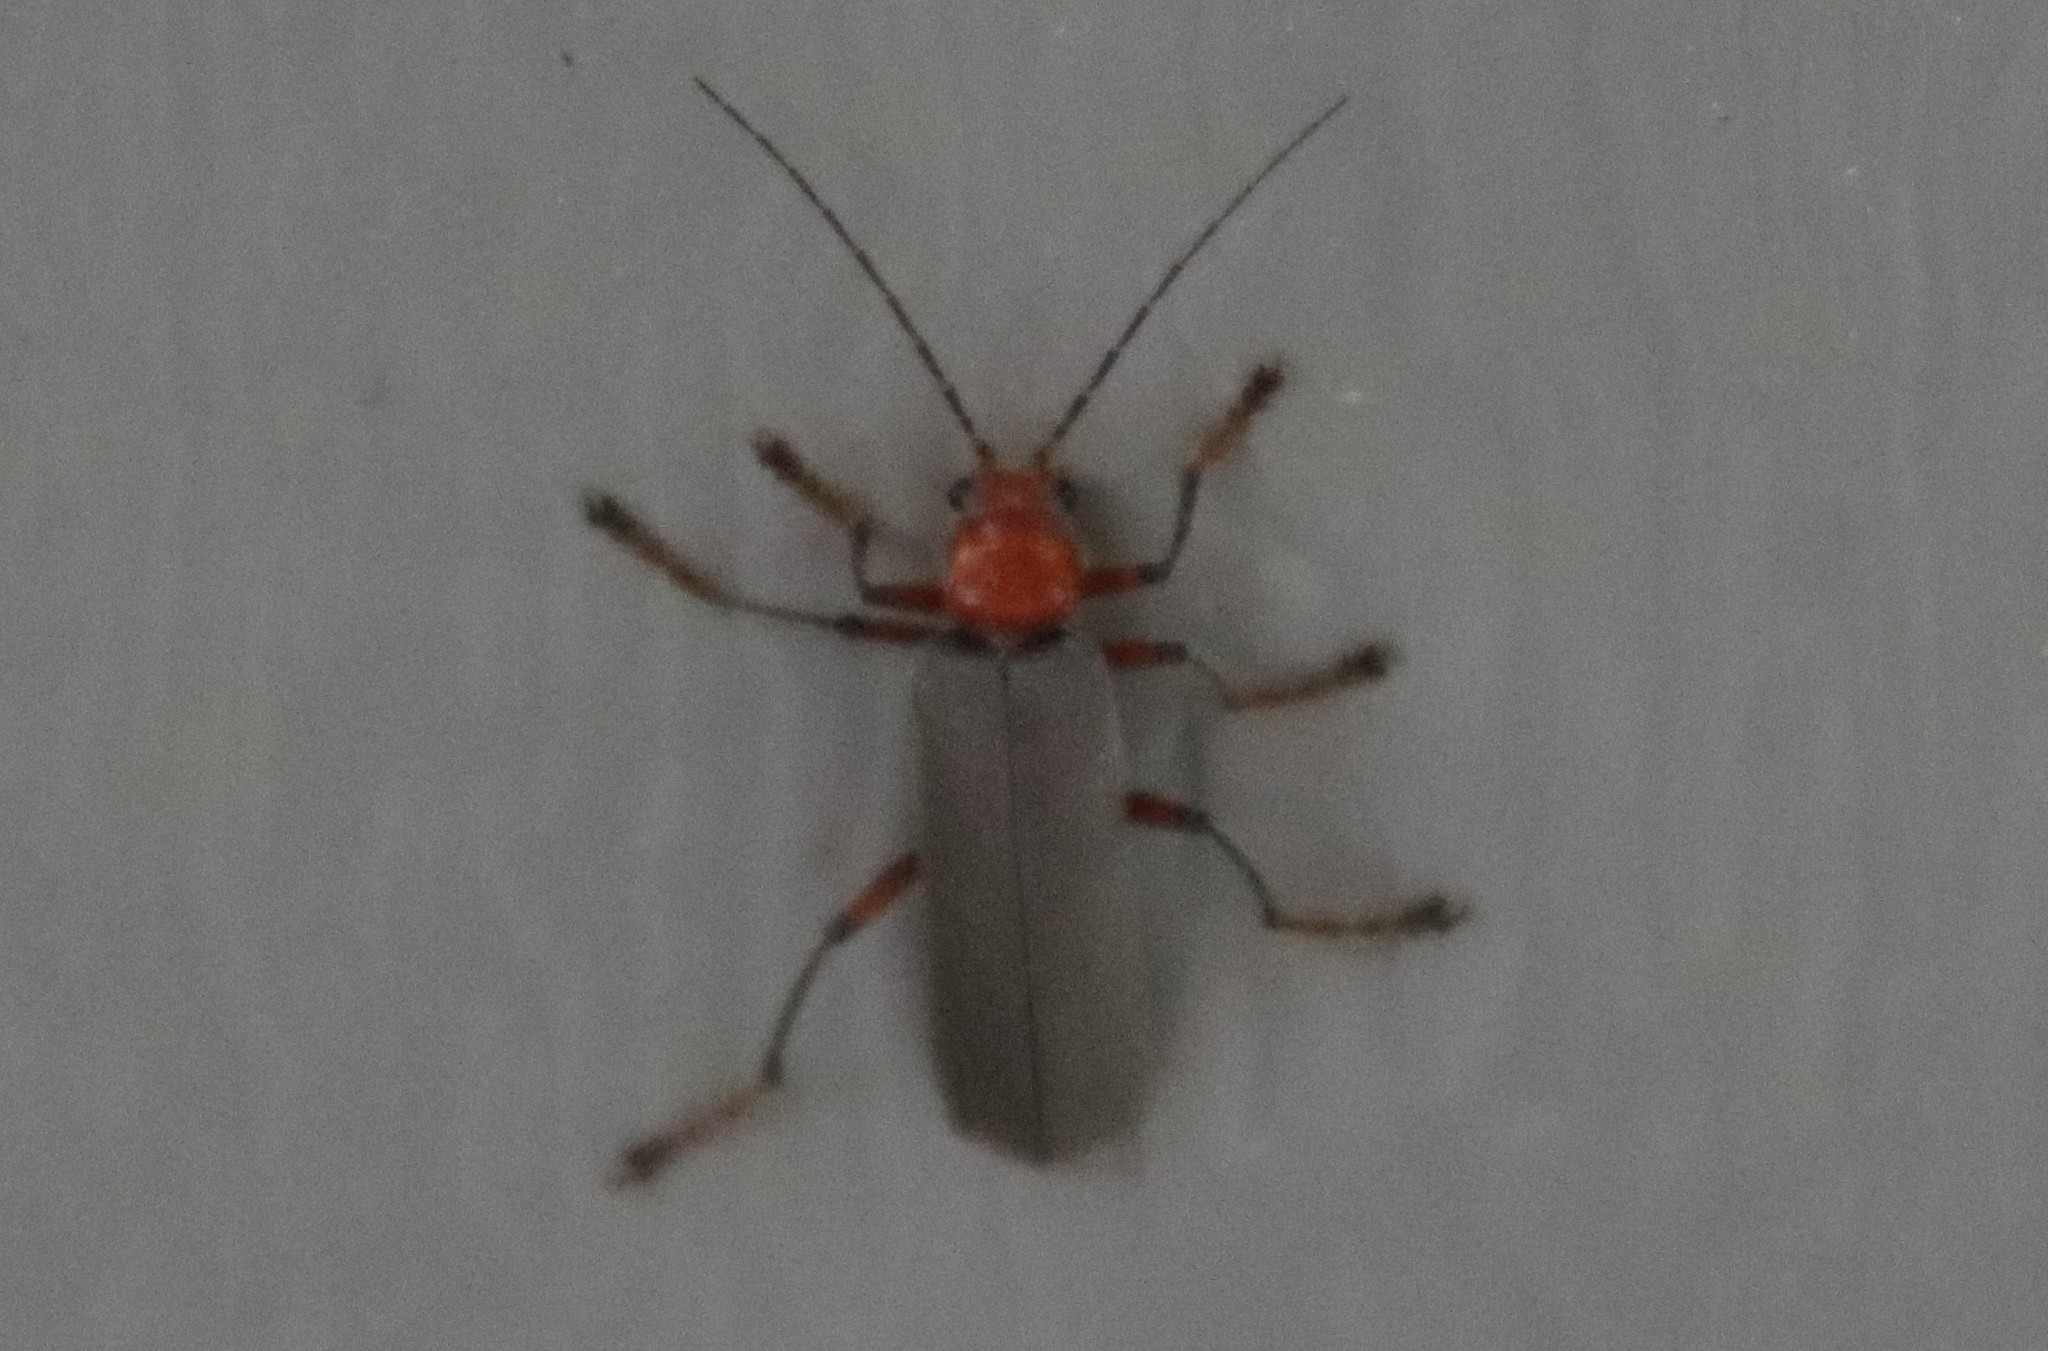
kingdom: Animalia
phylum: Arthropoda
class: Insecta
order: Coleoptera
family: Cantharidae
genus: Pacificanthia
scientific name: Pacificanthia consors
